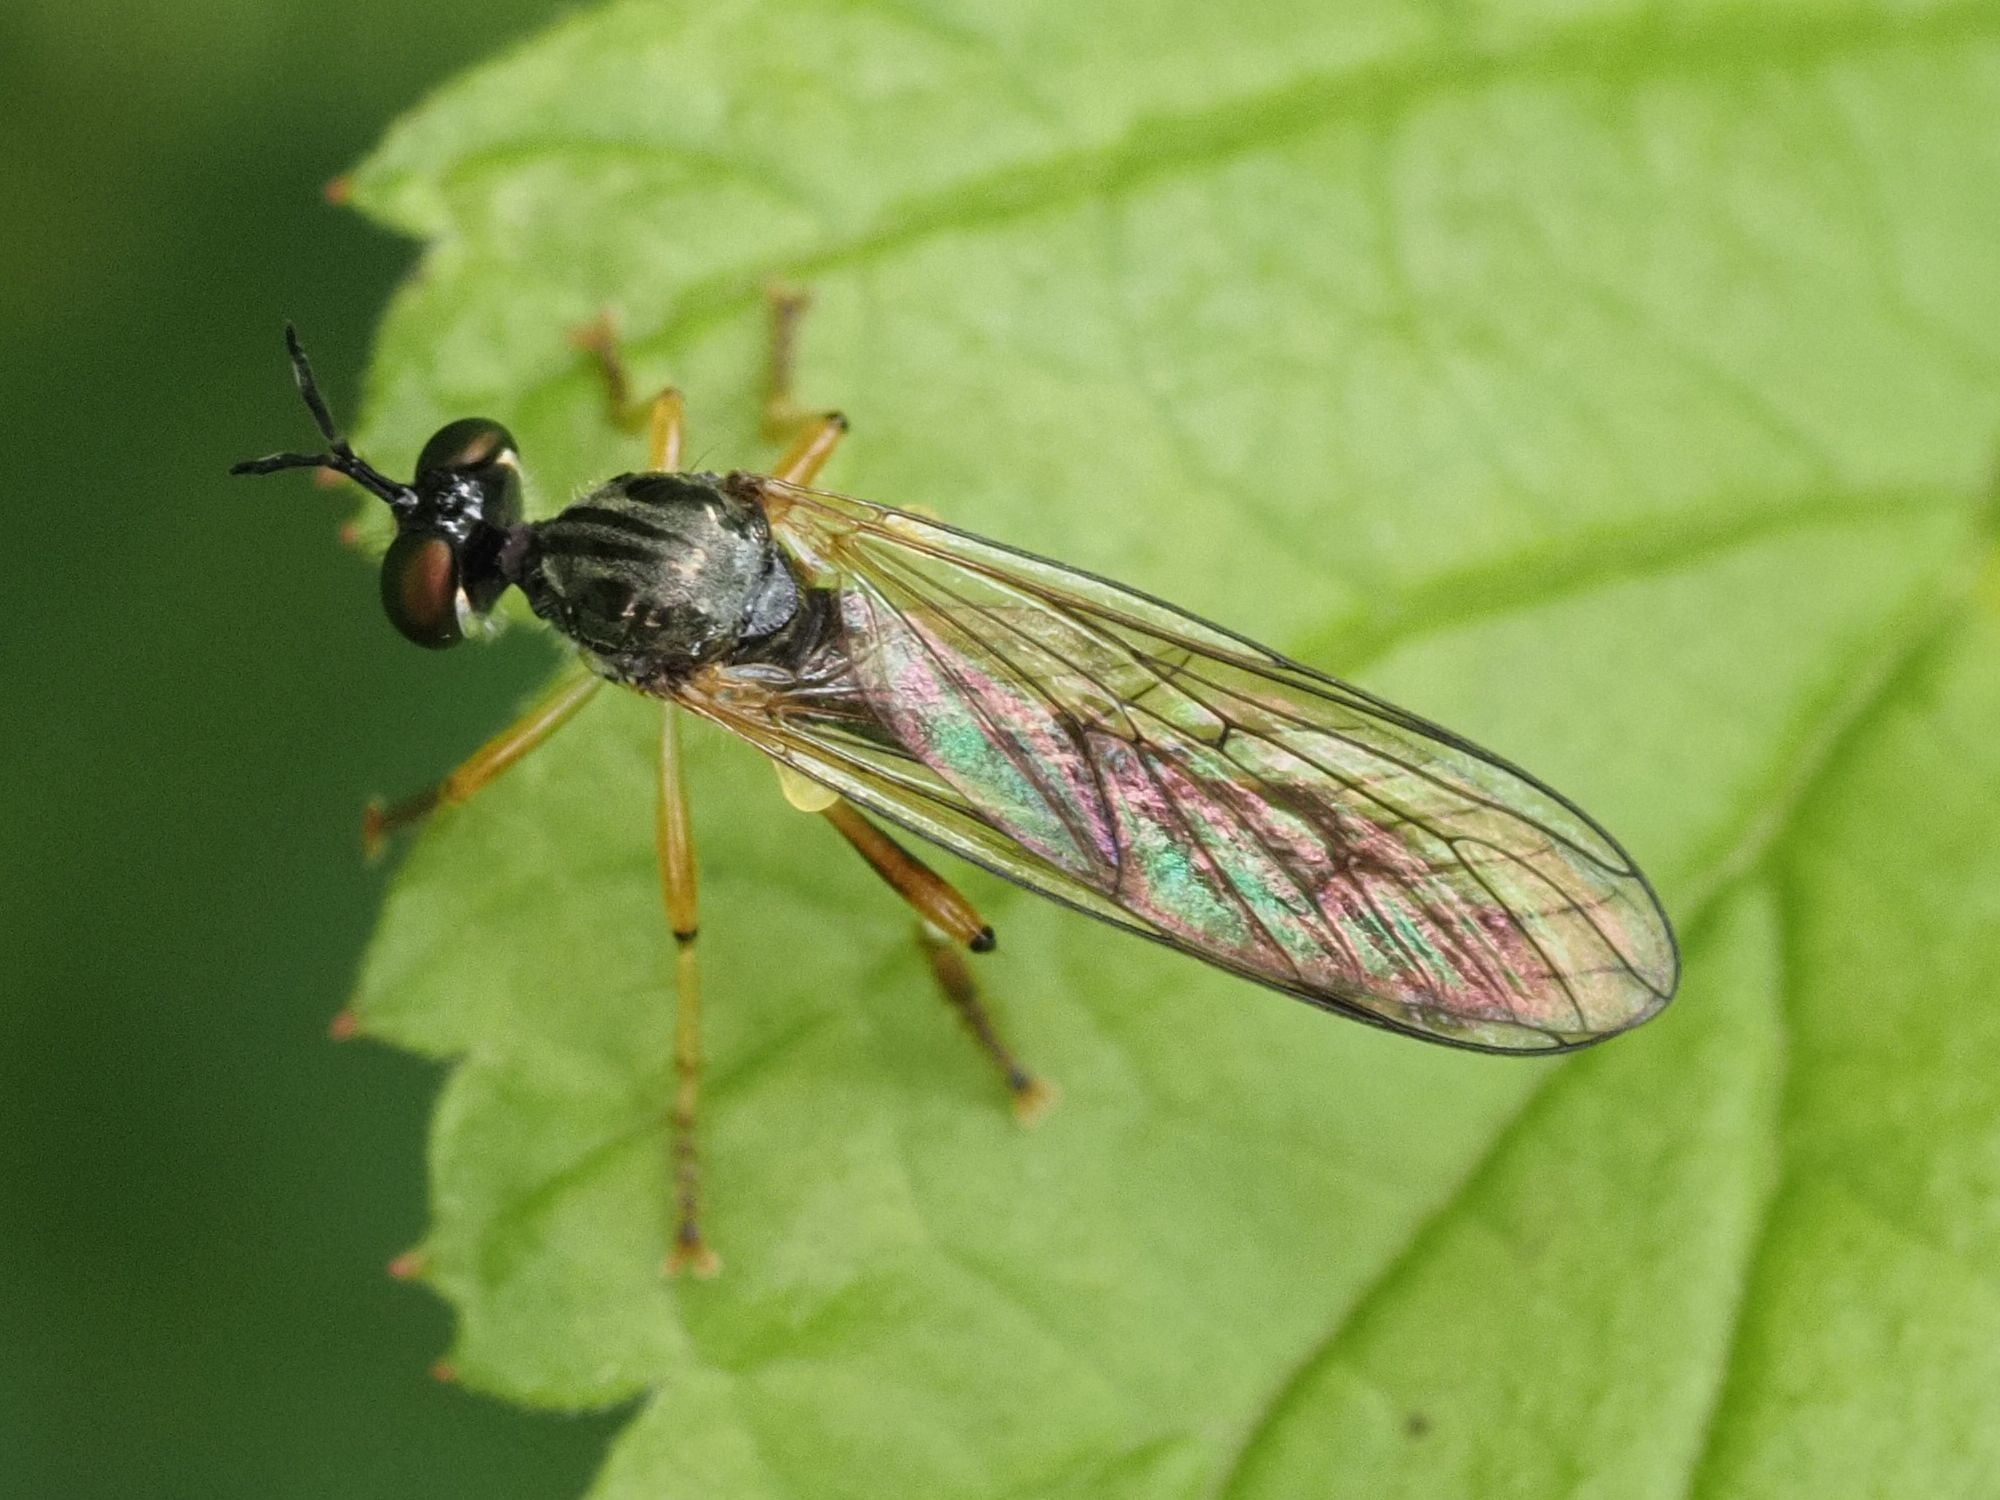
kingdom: Animalia
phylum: Arthropoda
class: Insecta
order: Diptera
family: Asilidae
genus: Dioctria
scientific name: Dioctria linearis
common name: Small yellow-legged robberfly
